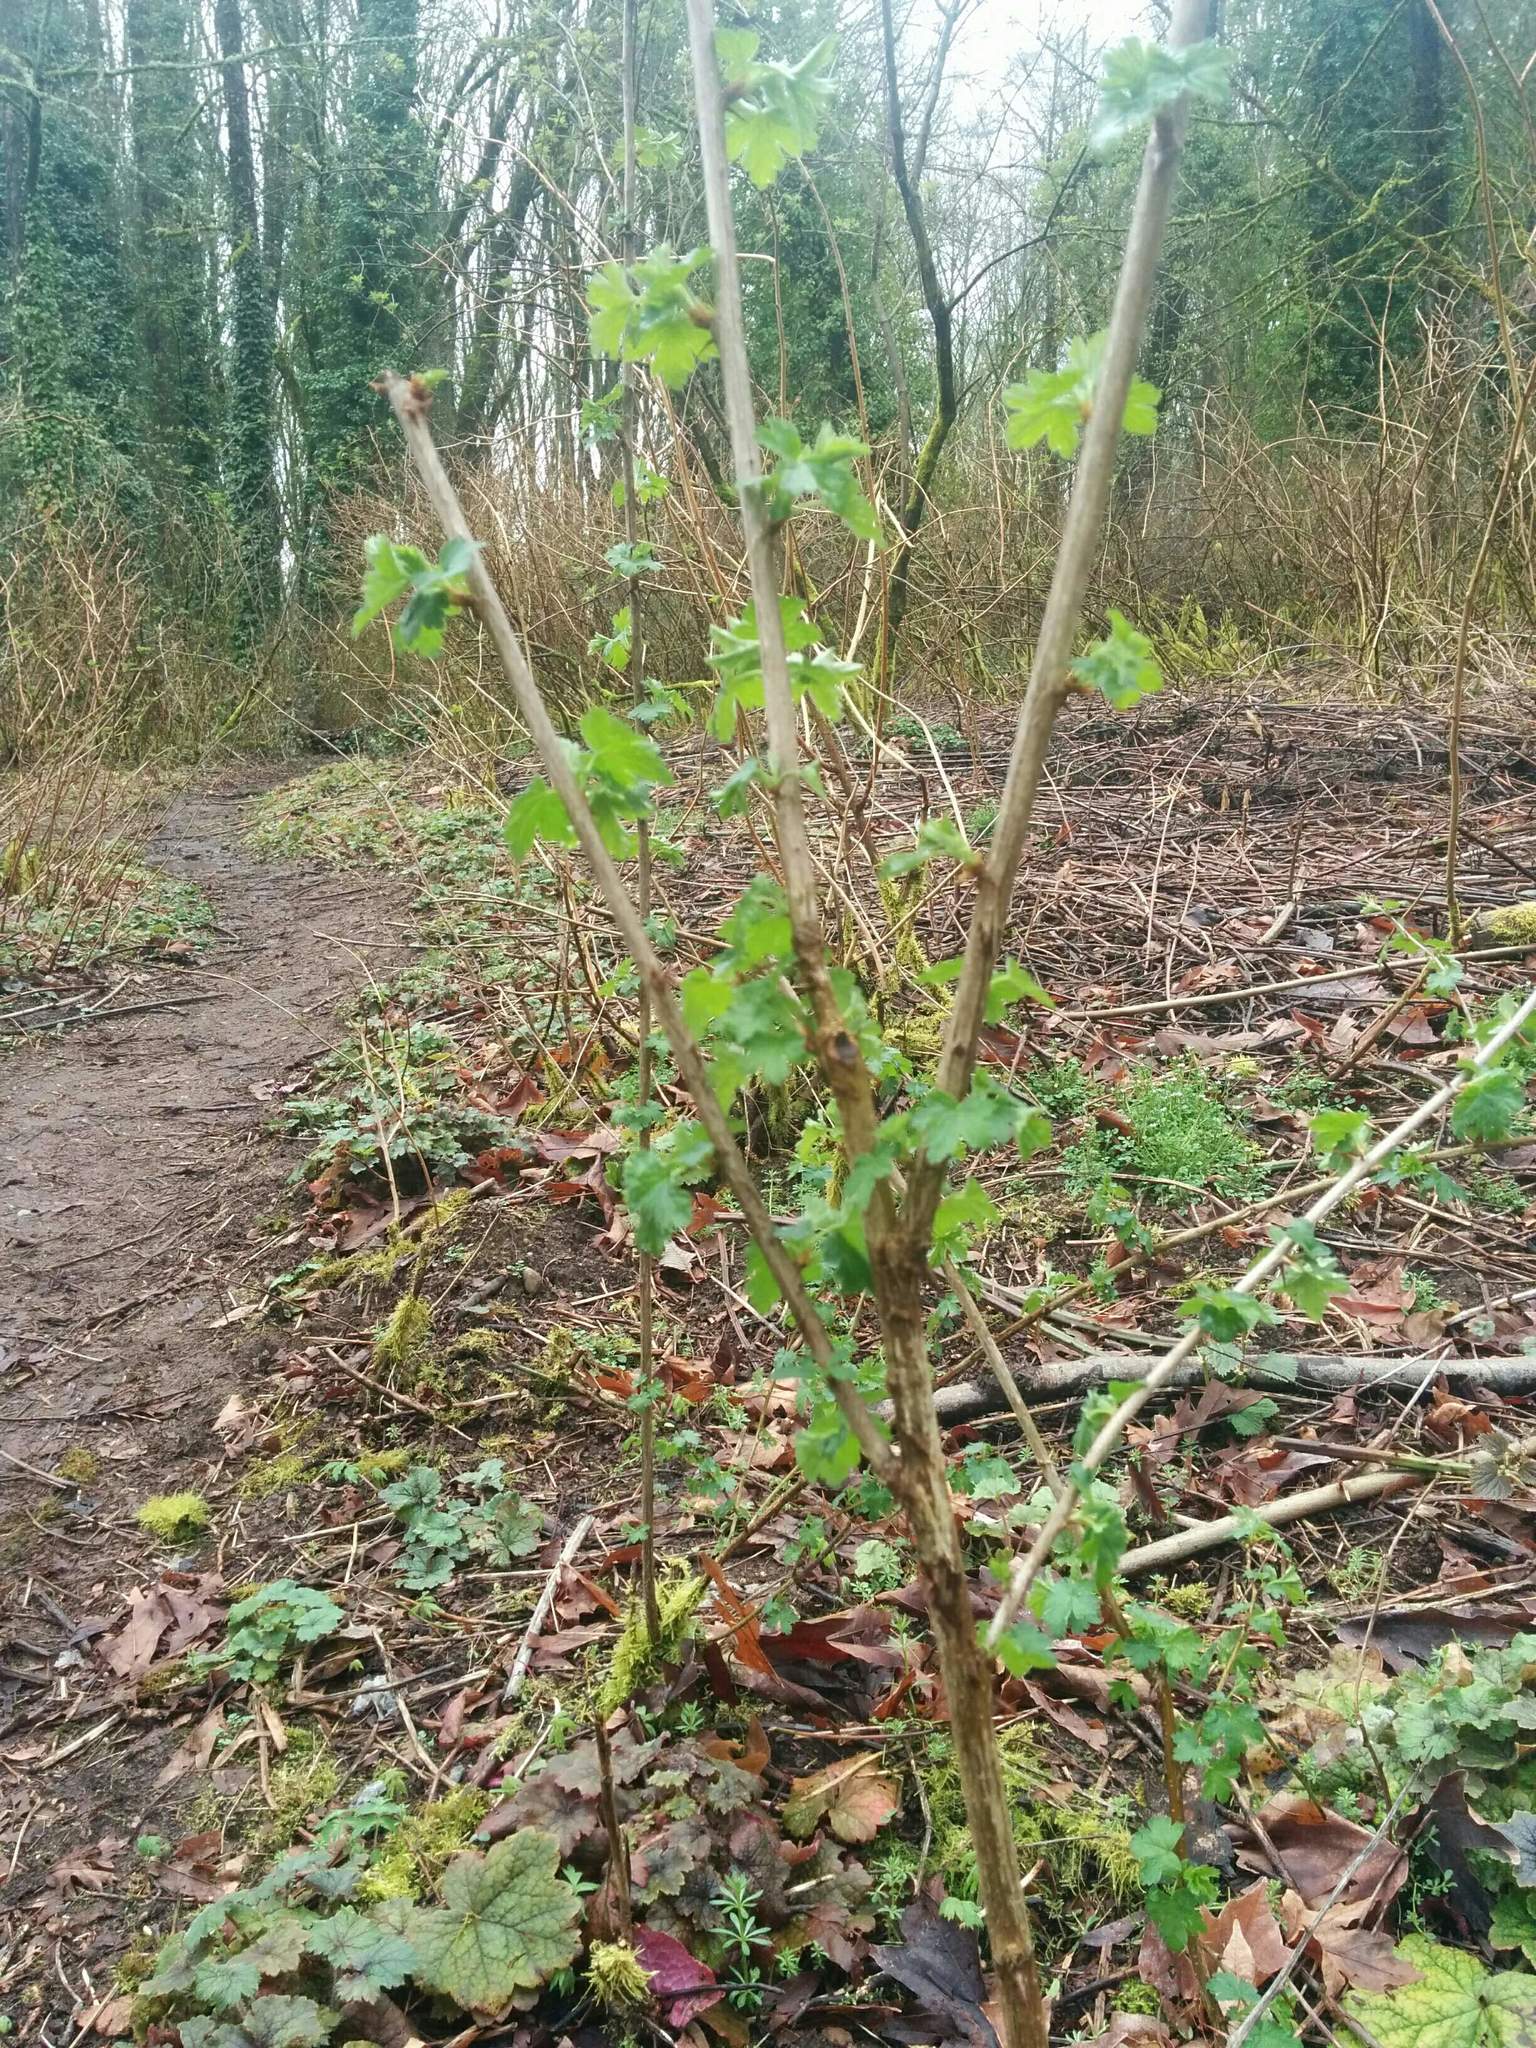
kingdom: Plantae
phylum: Tracheophyta
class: Magnoliopsida
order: Saxifragales
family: Grossulariaceae
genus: Ribes
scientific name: Ribes divaricatum
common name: Wild black gooseberry
